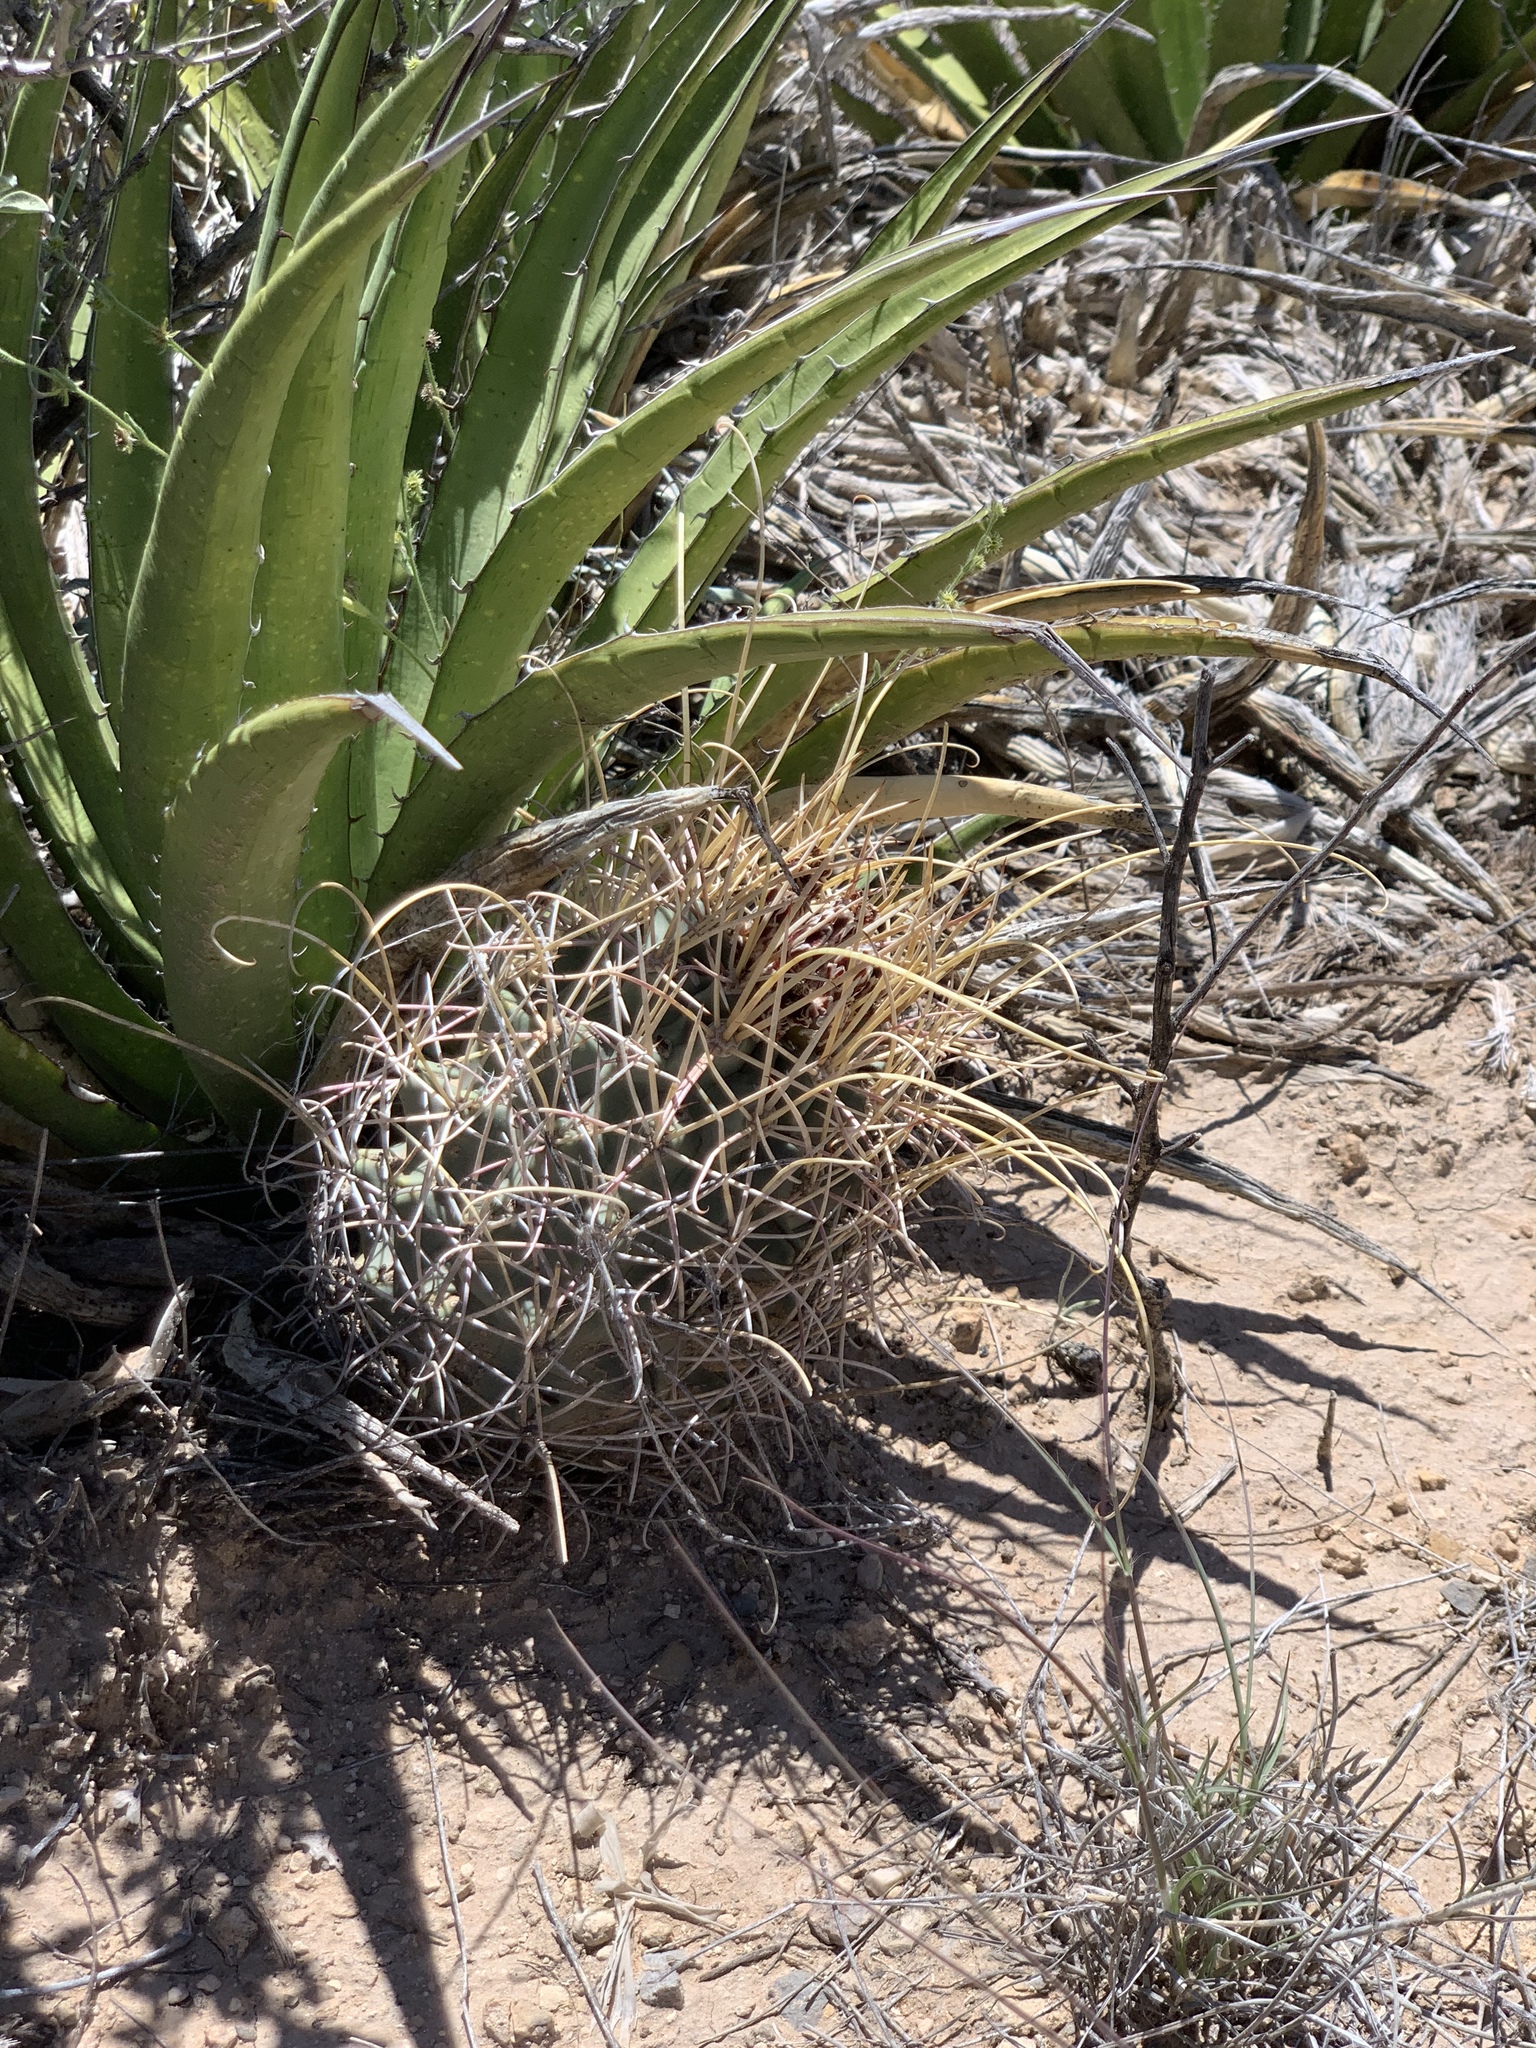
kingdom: Plantae
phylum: Tracheophyta
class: Magnoliopsida
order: Caryophyllales
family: Cactaceae
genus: Ferocactus
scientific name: Ferocactus uncinatus
